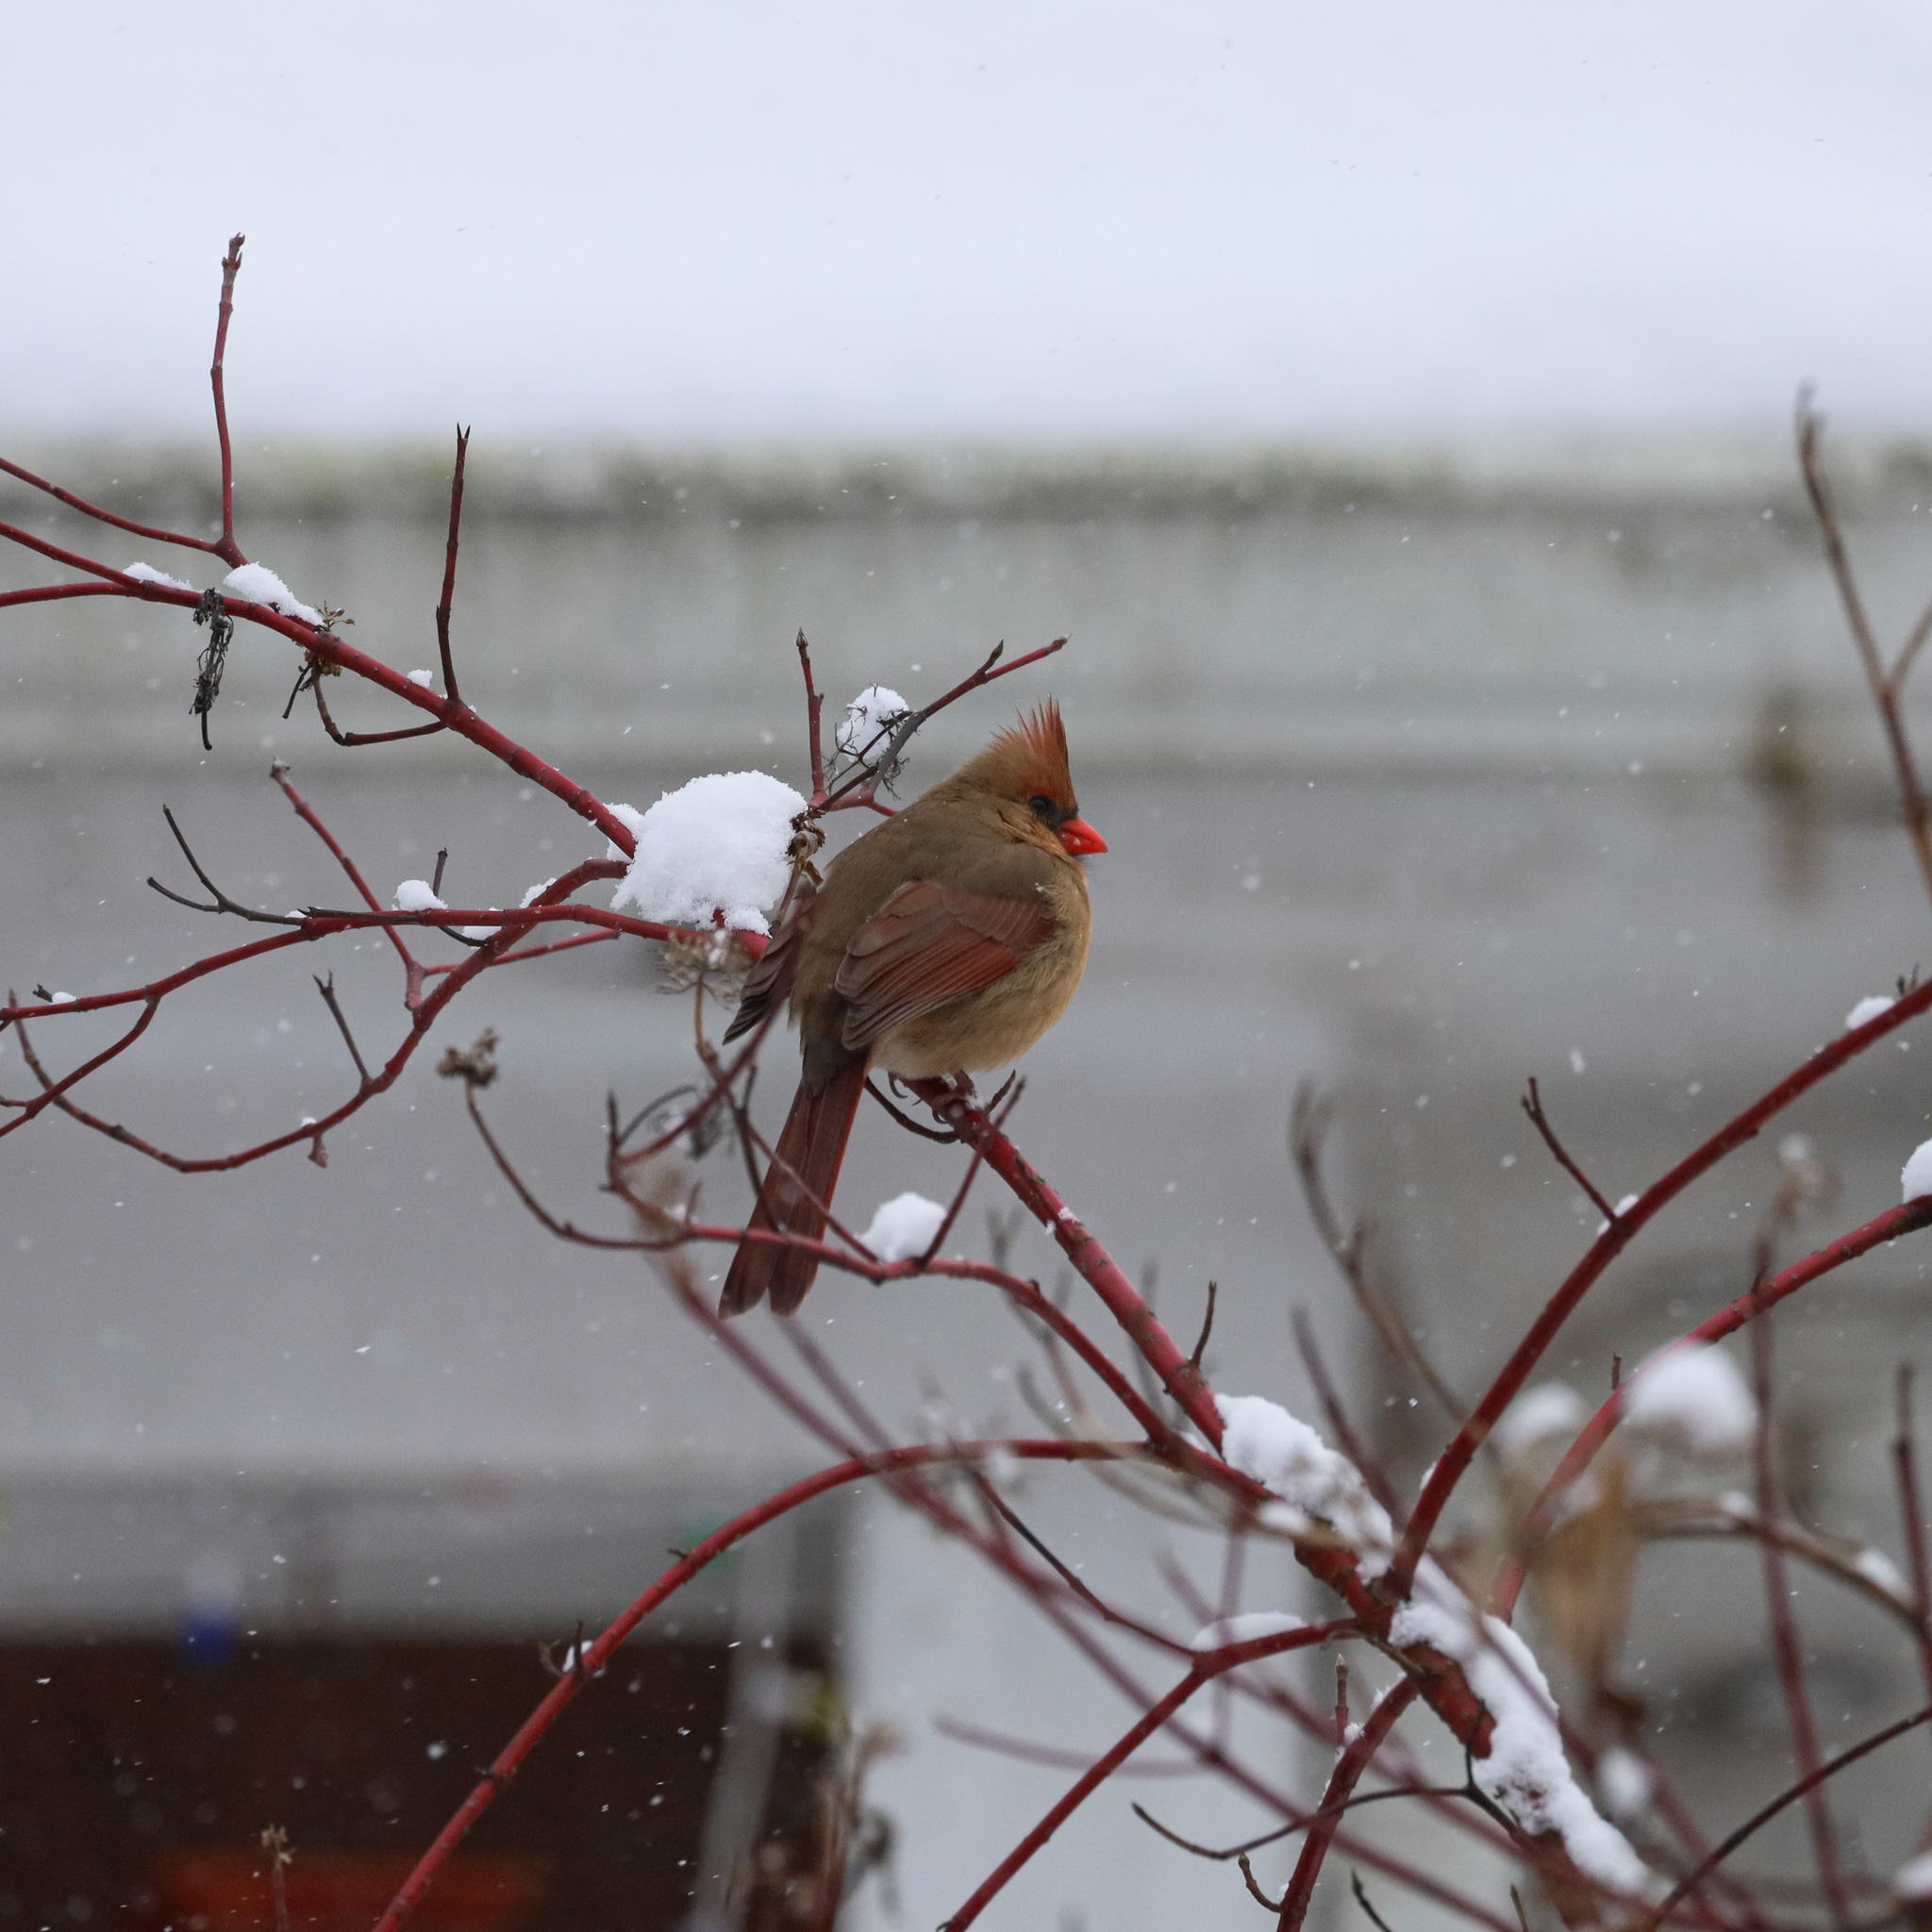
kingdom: Animalia
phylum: Chordata
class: Aves
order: Passeriformes
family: Cardinalidae
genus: Cardinalis
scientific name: Cardinalis cardinalis
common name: Northern cardinal
